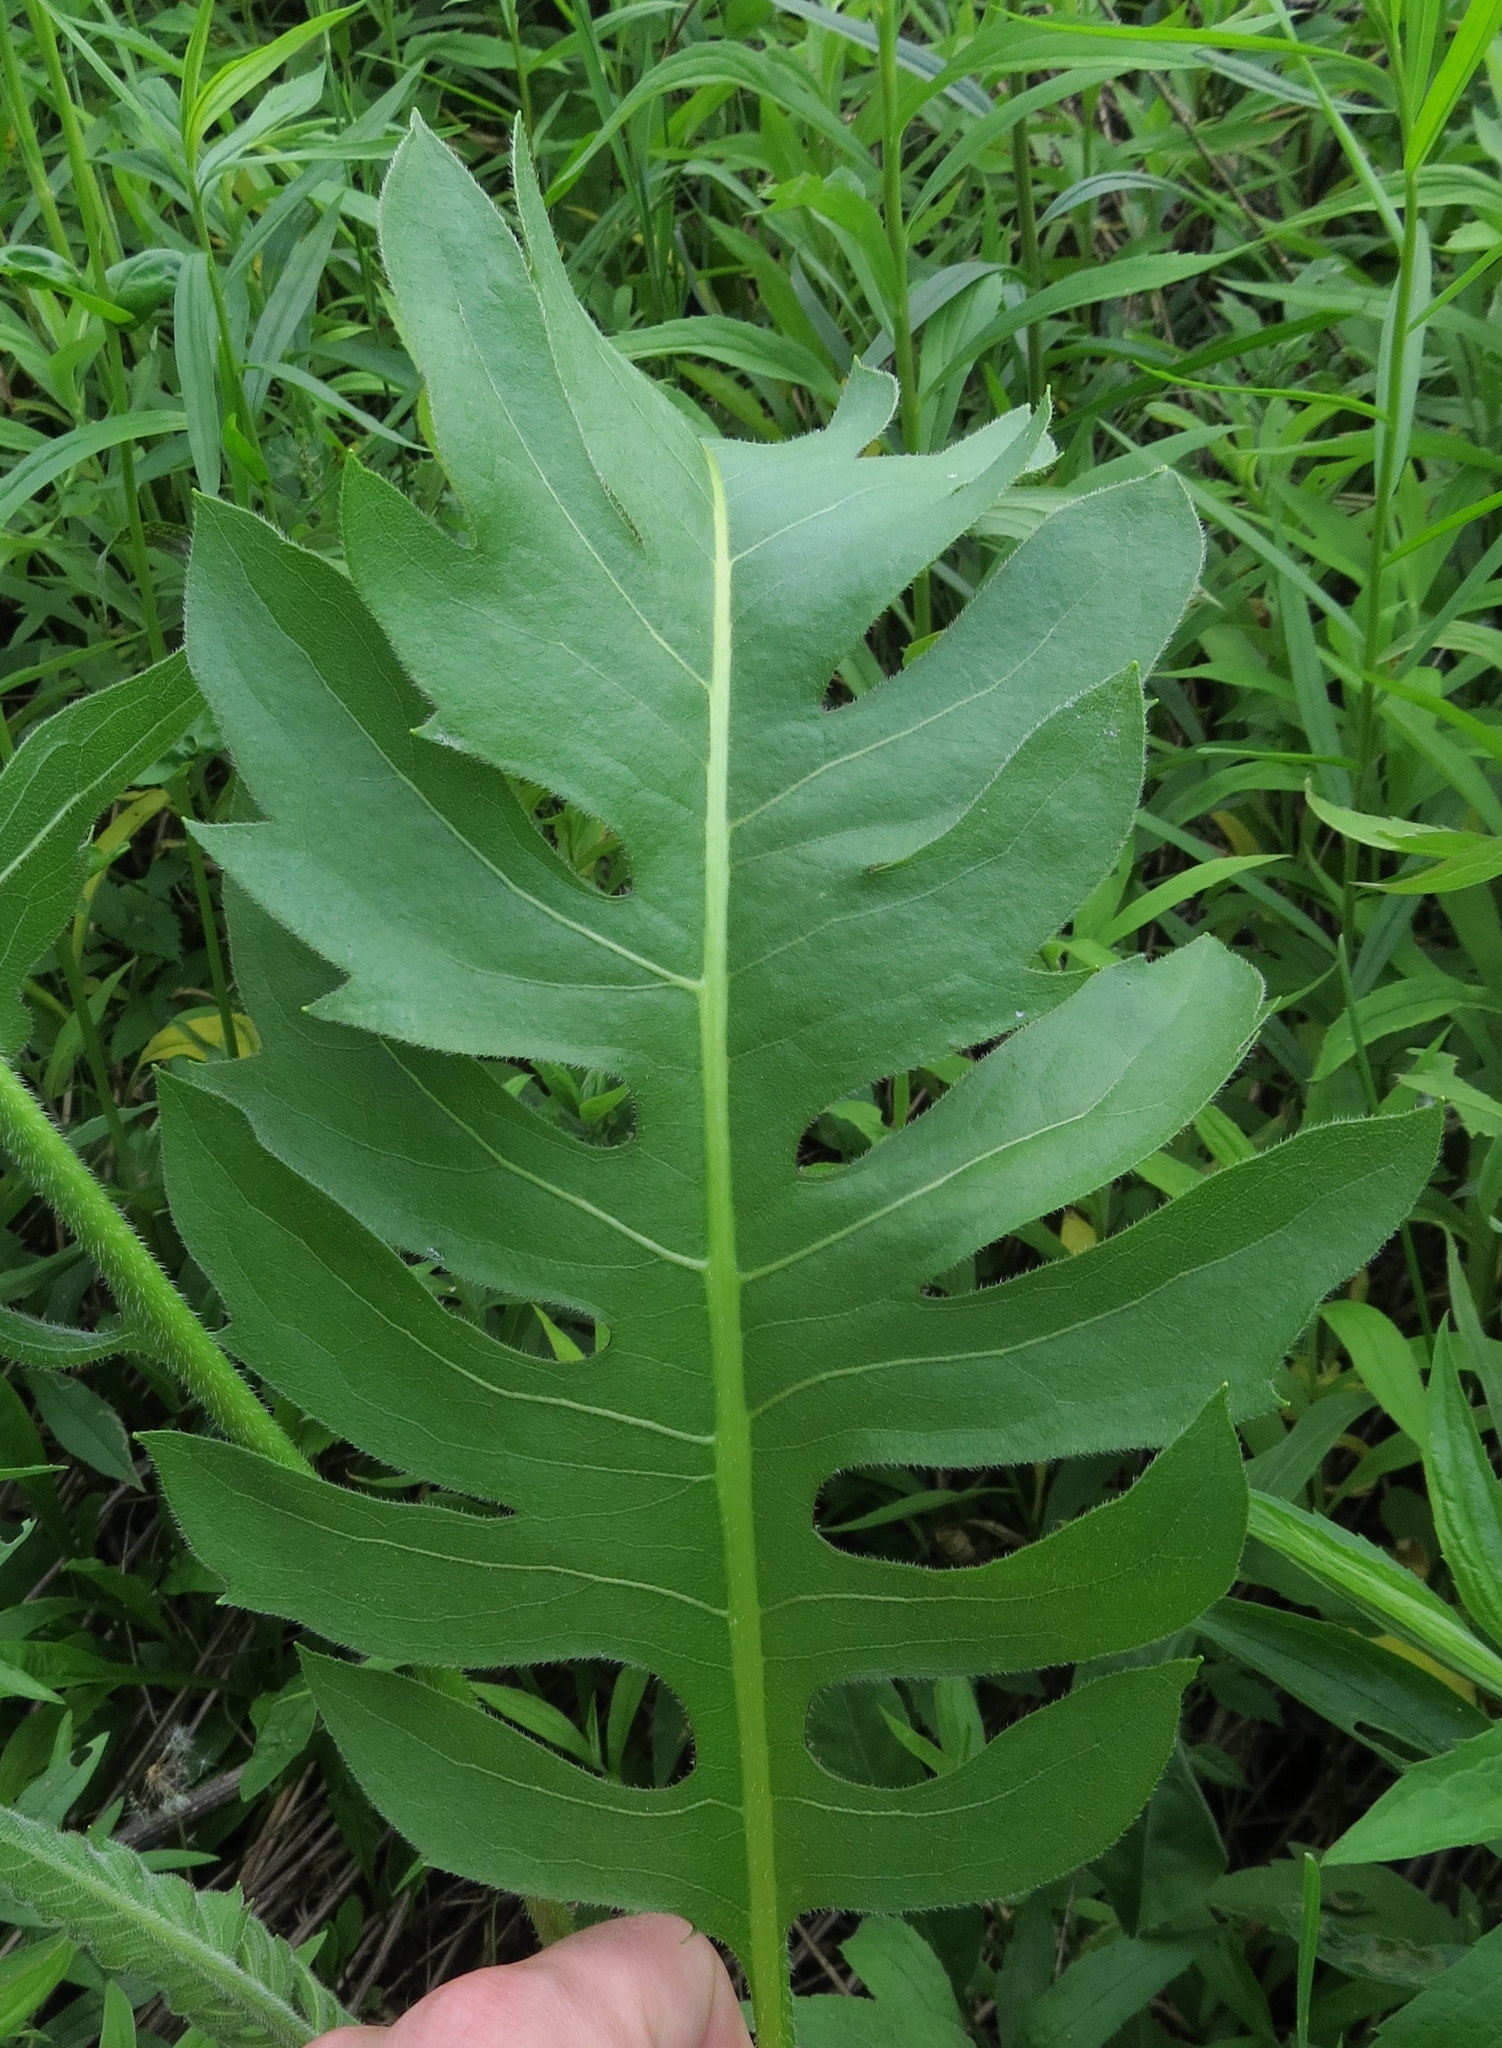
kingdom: Plantae
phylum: Tracheophyta
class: Magnoliopsida
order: Asterales
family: Asteraceae
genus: Silphium
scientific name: Silphium laciniatum
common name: Polarplant
